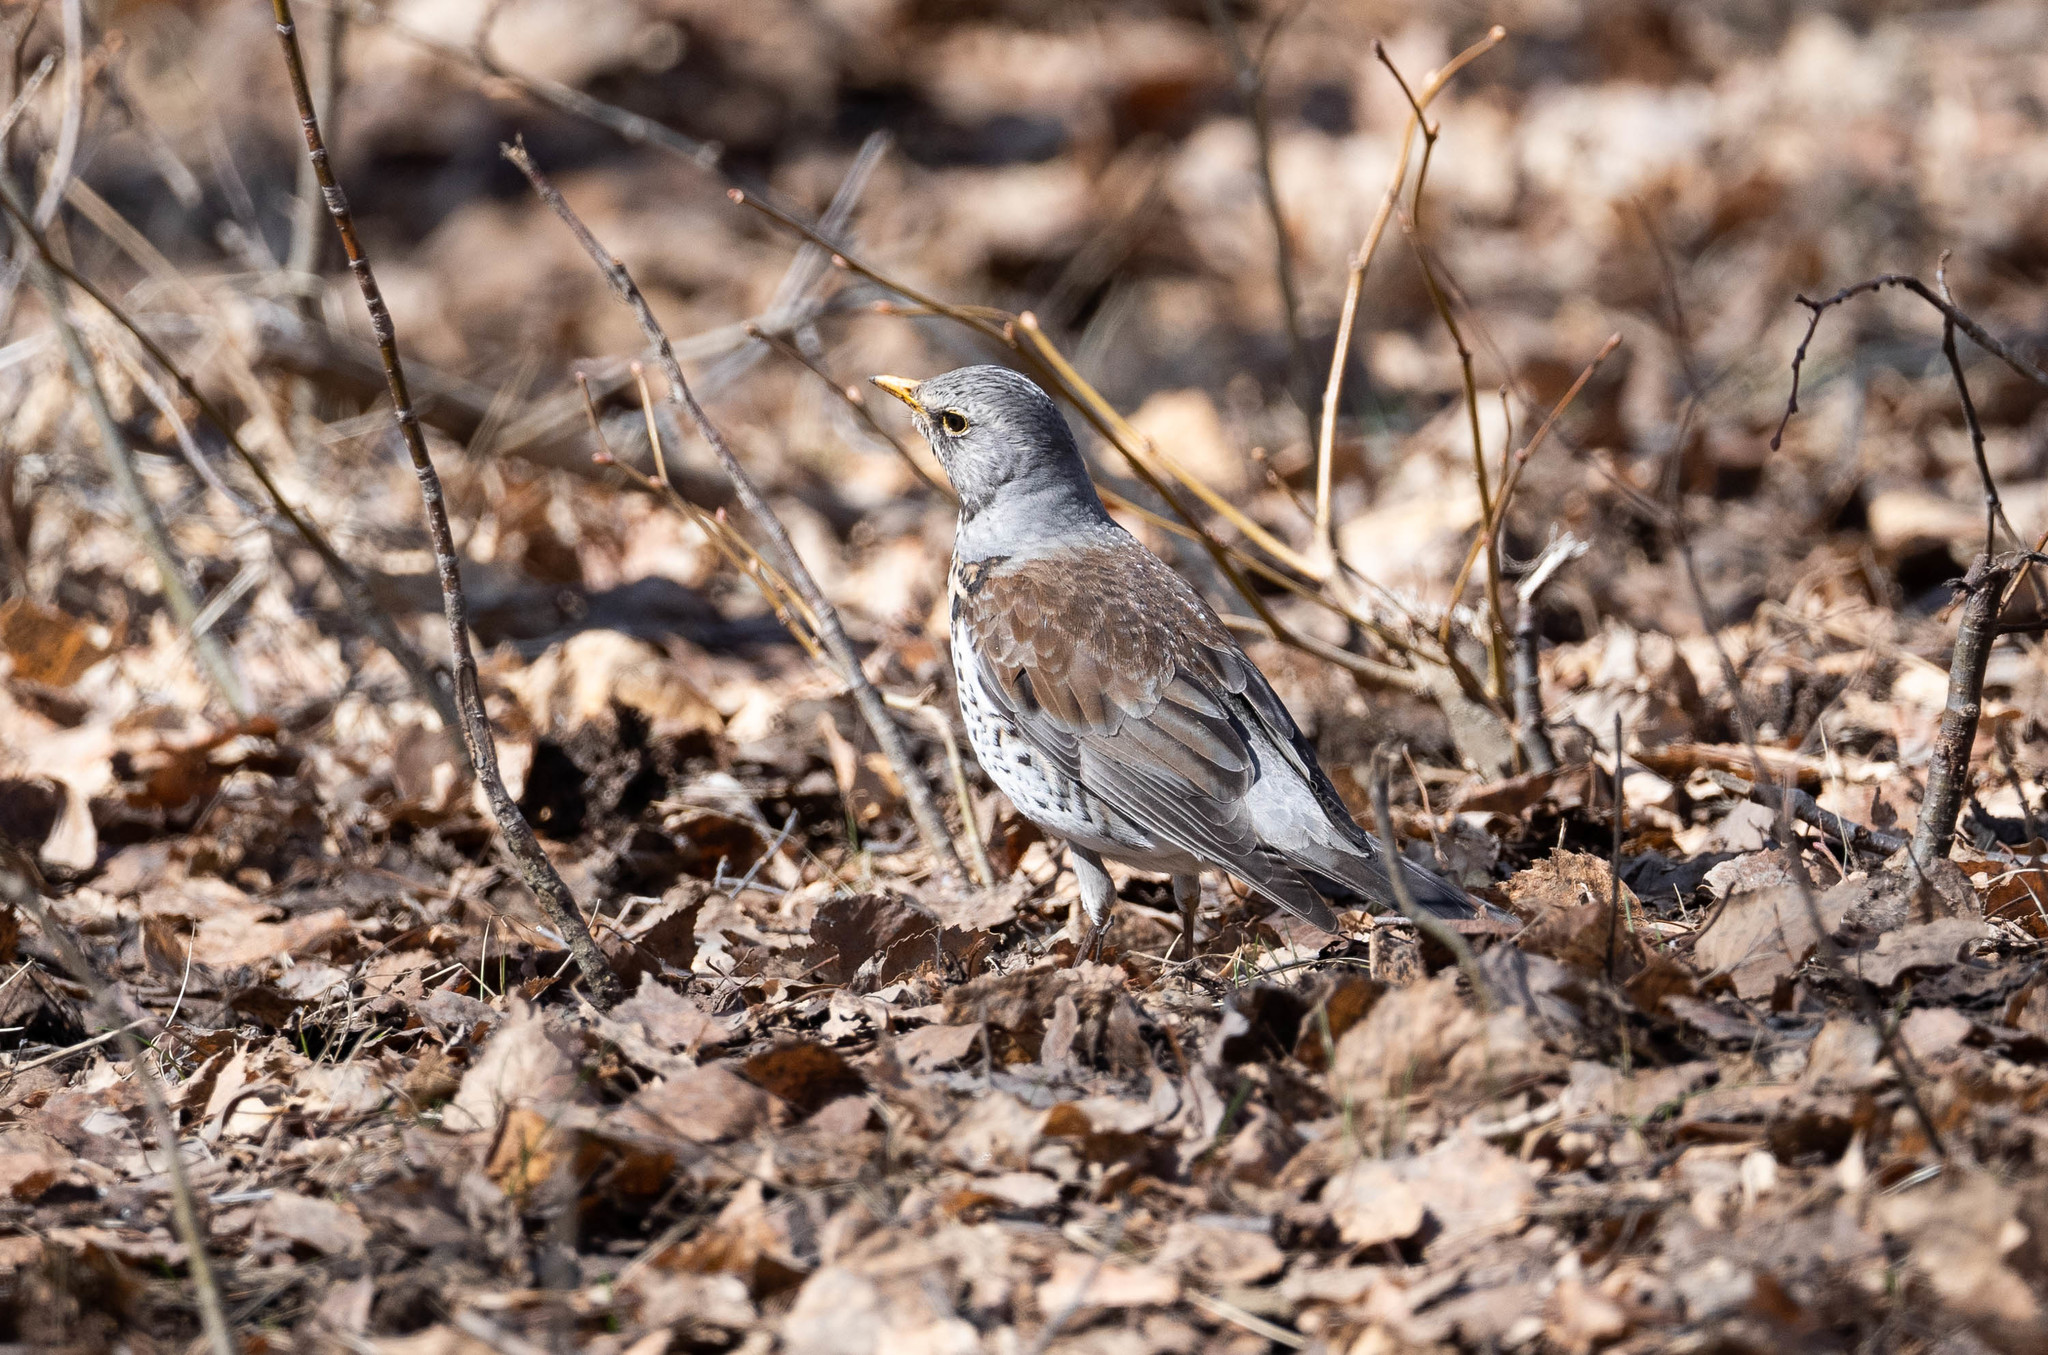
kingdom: Animalia
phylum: Chordata
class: Aves
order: Passeriformes
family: Turdidae
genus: Turdus
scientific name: Turdus pilaris
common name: Fieldfare
